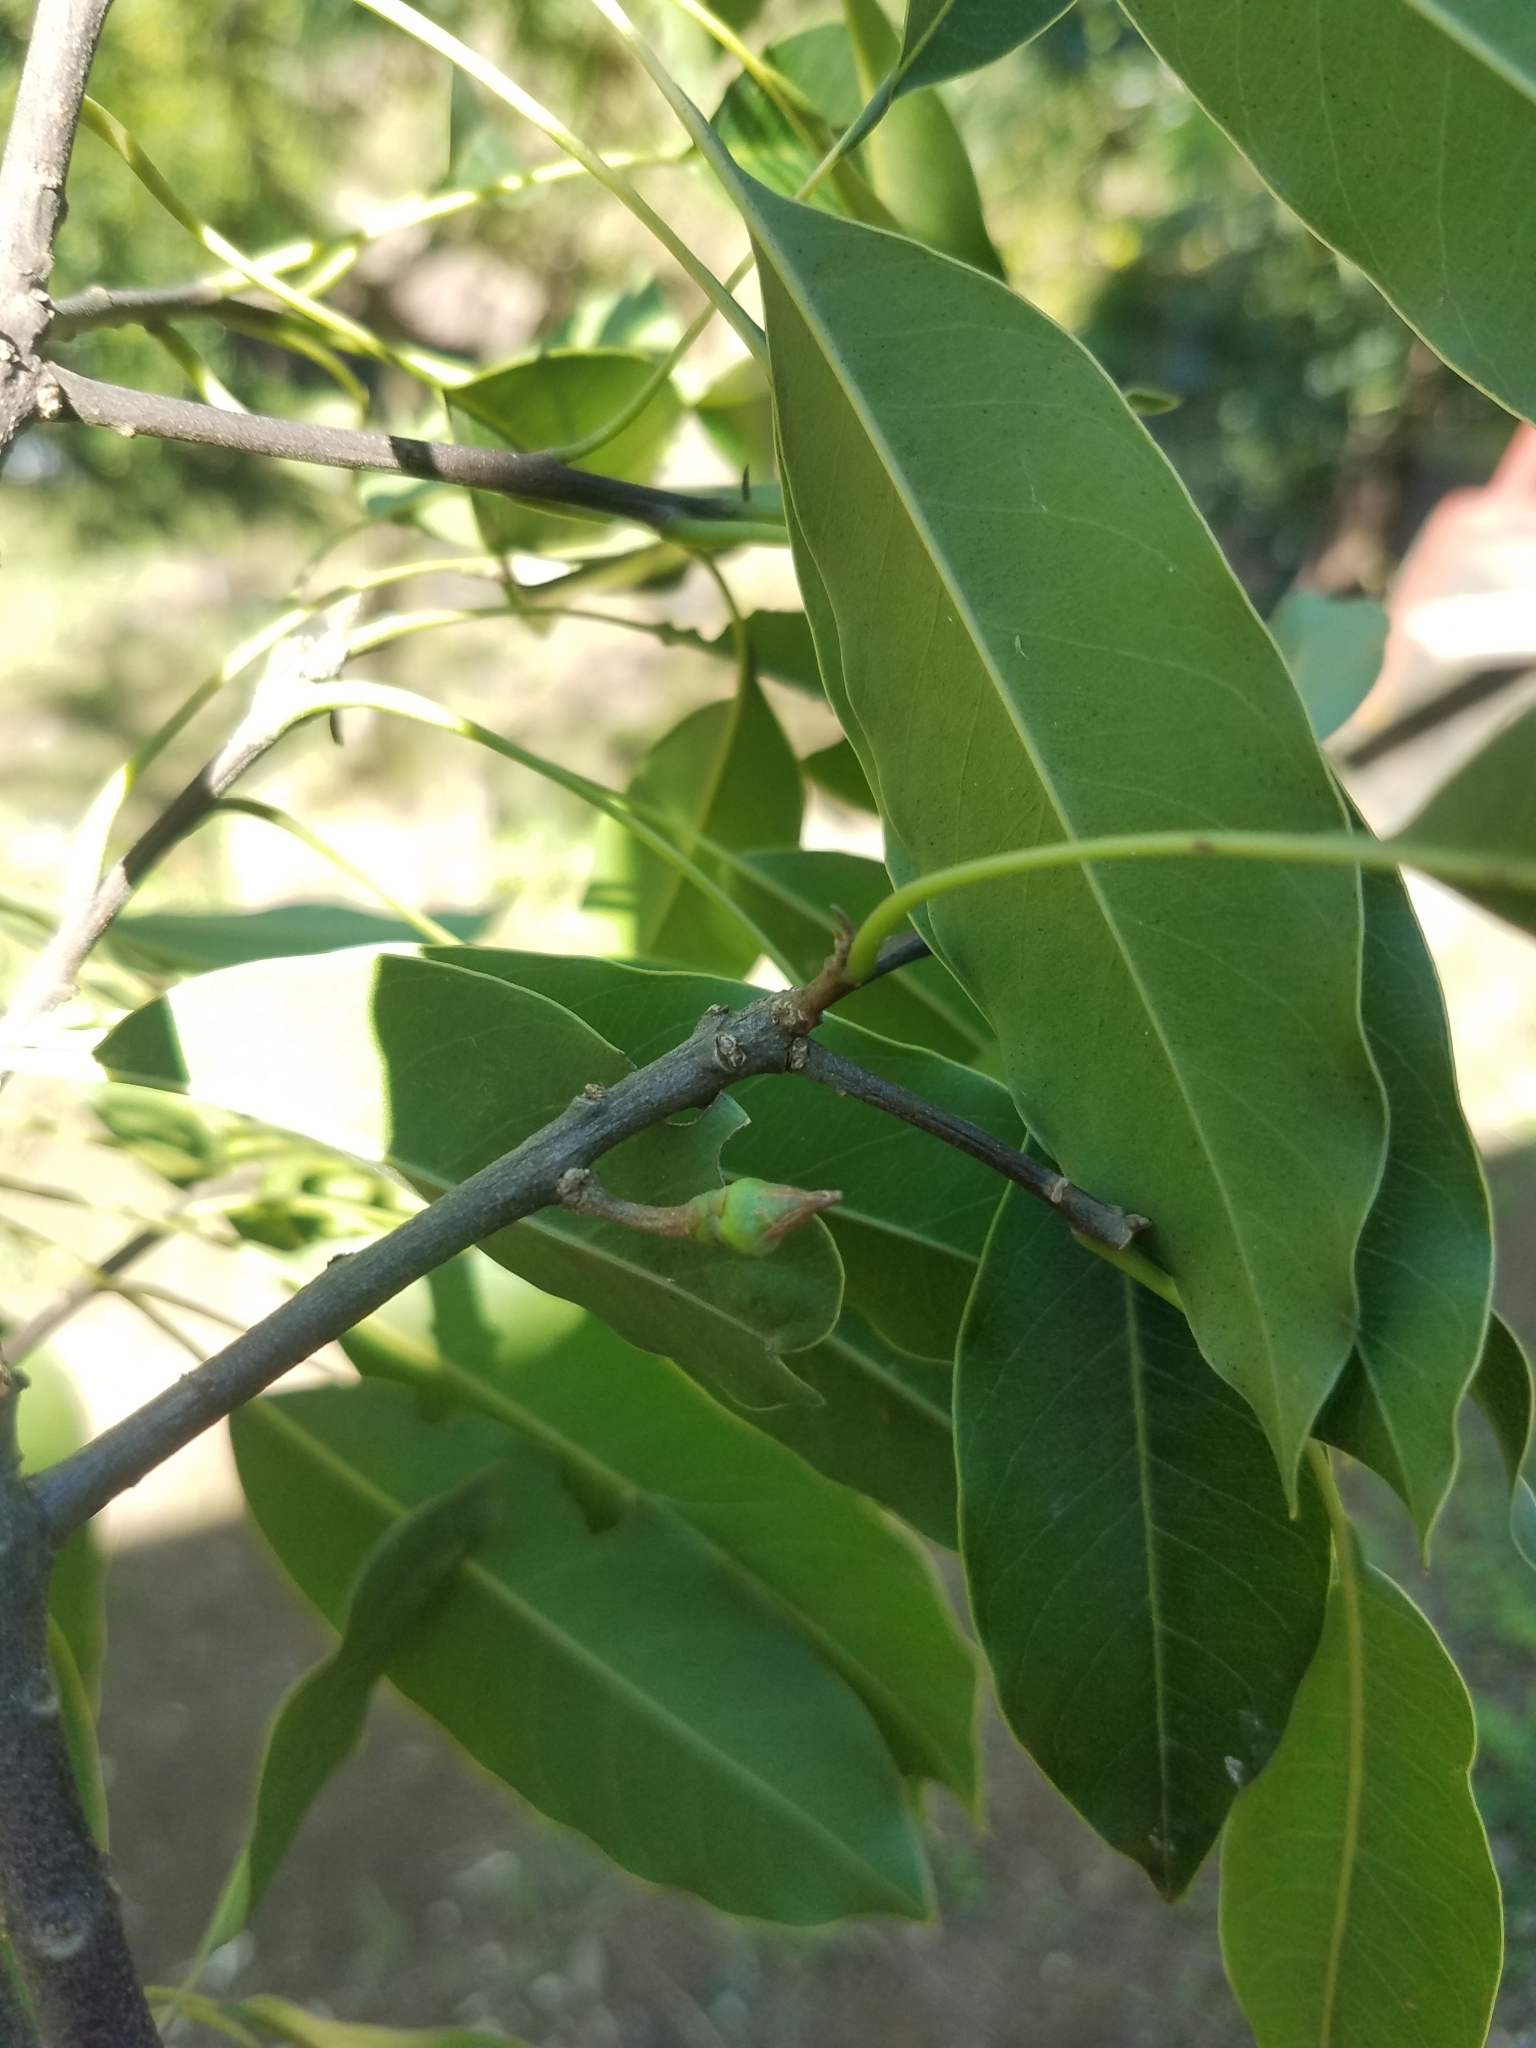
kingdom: Plantae
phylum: Tracheophyta
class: Magnoliopsida
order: Ericales
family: Sapotaceae
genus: Sideroxylon
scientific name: Sideroxylon capiri
